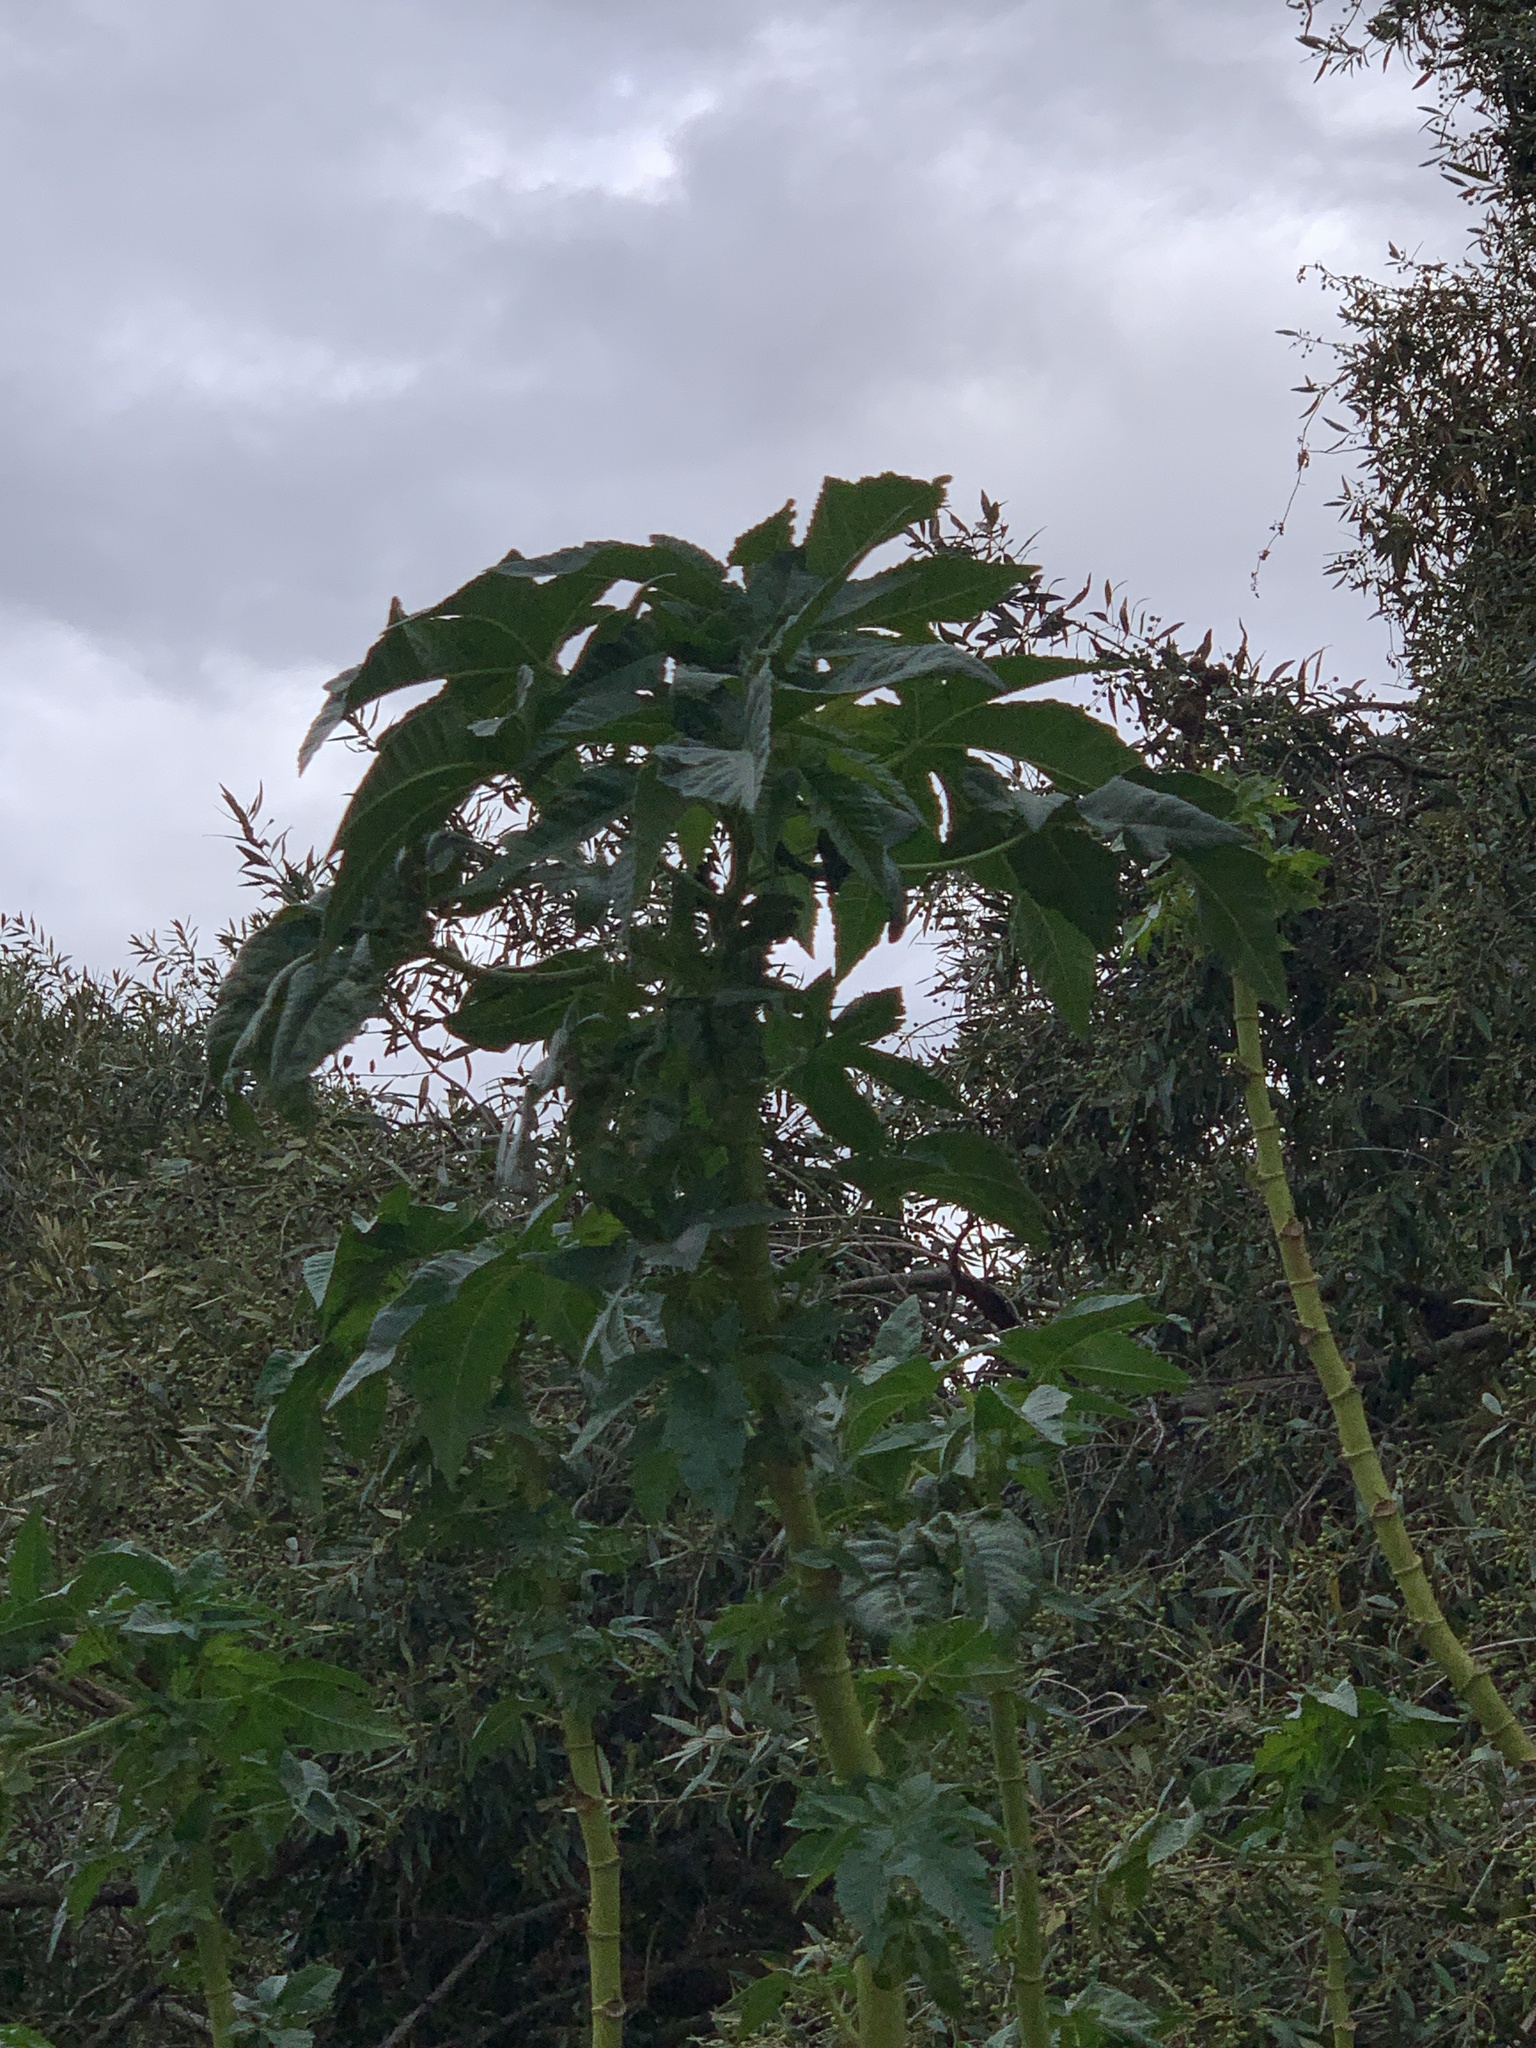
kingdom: Plantae
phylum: Tracheophyta
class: Magnoliopsida
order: Malpighiales
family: Euphorbiaceae
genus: Ricinus
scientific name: Ricinus communis
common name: Castor-oil-plant
